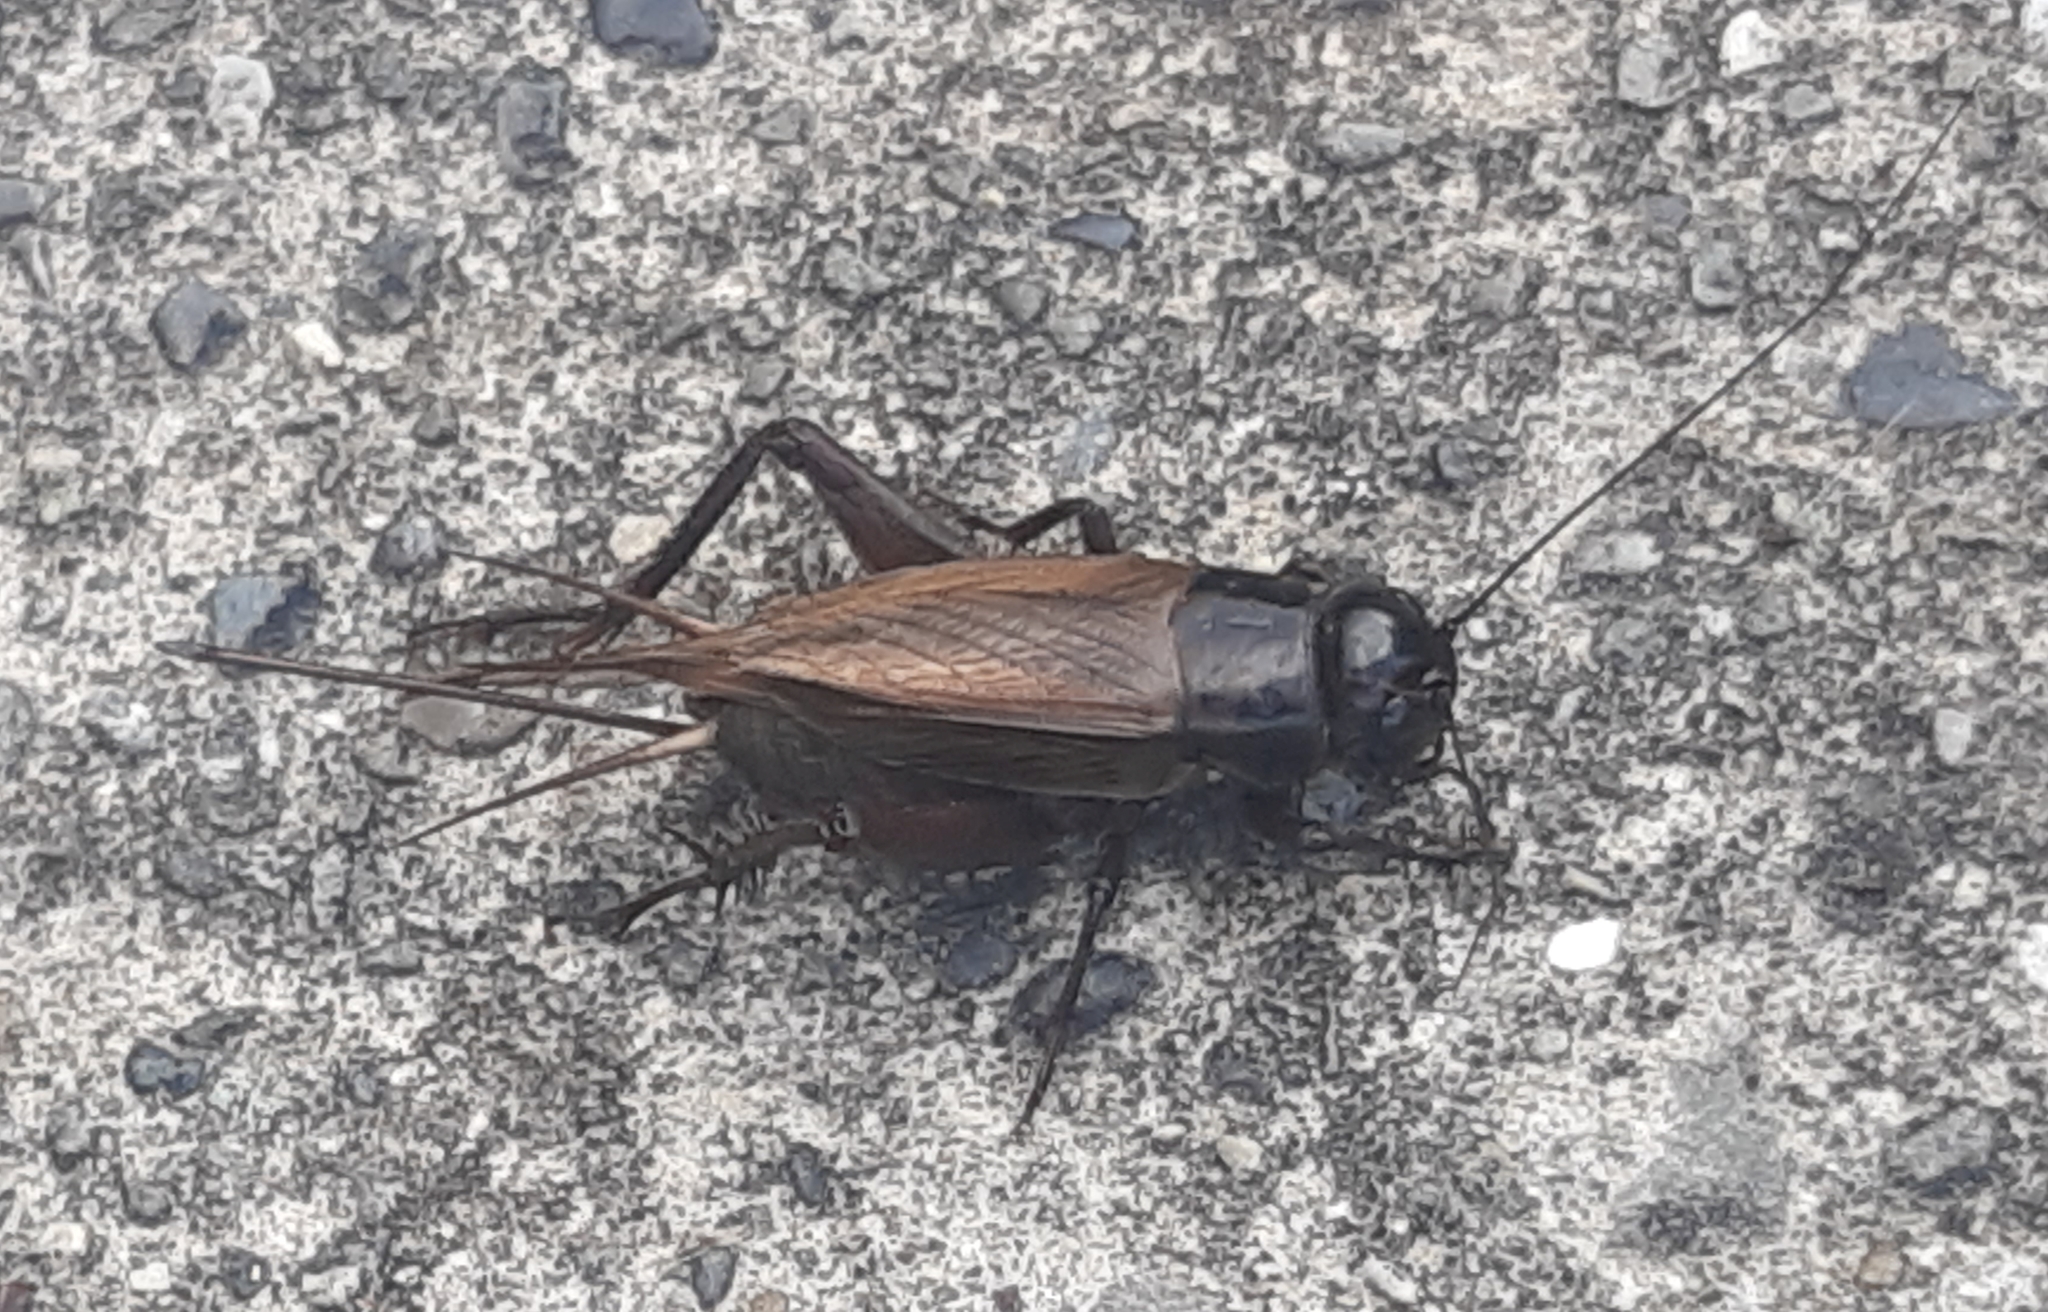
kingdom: Animalia
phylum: Arthropoda
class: Insecta
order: Orthoptera
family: Gryllidae
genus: Teleogryllus
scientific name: Teleogryllus commodus
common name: Black field cricket
